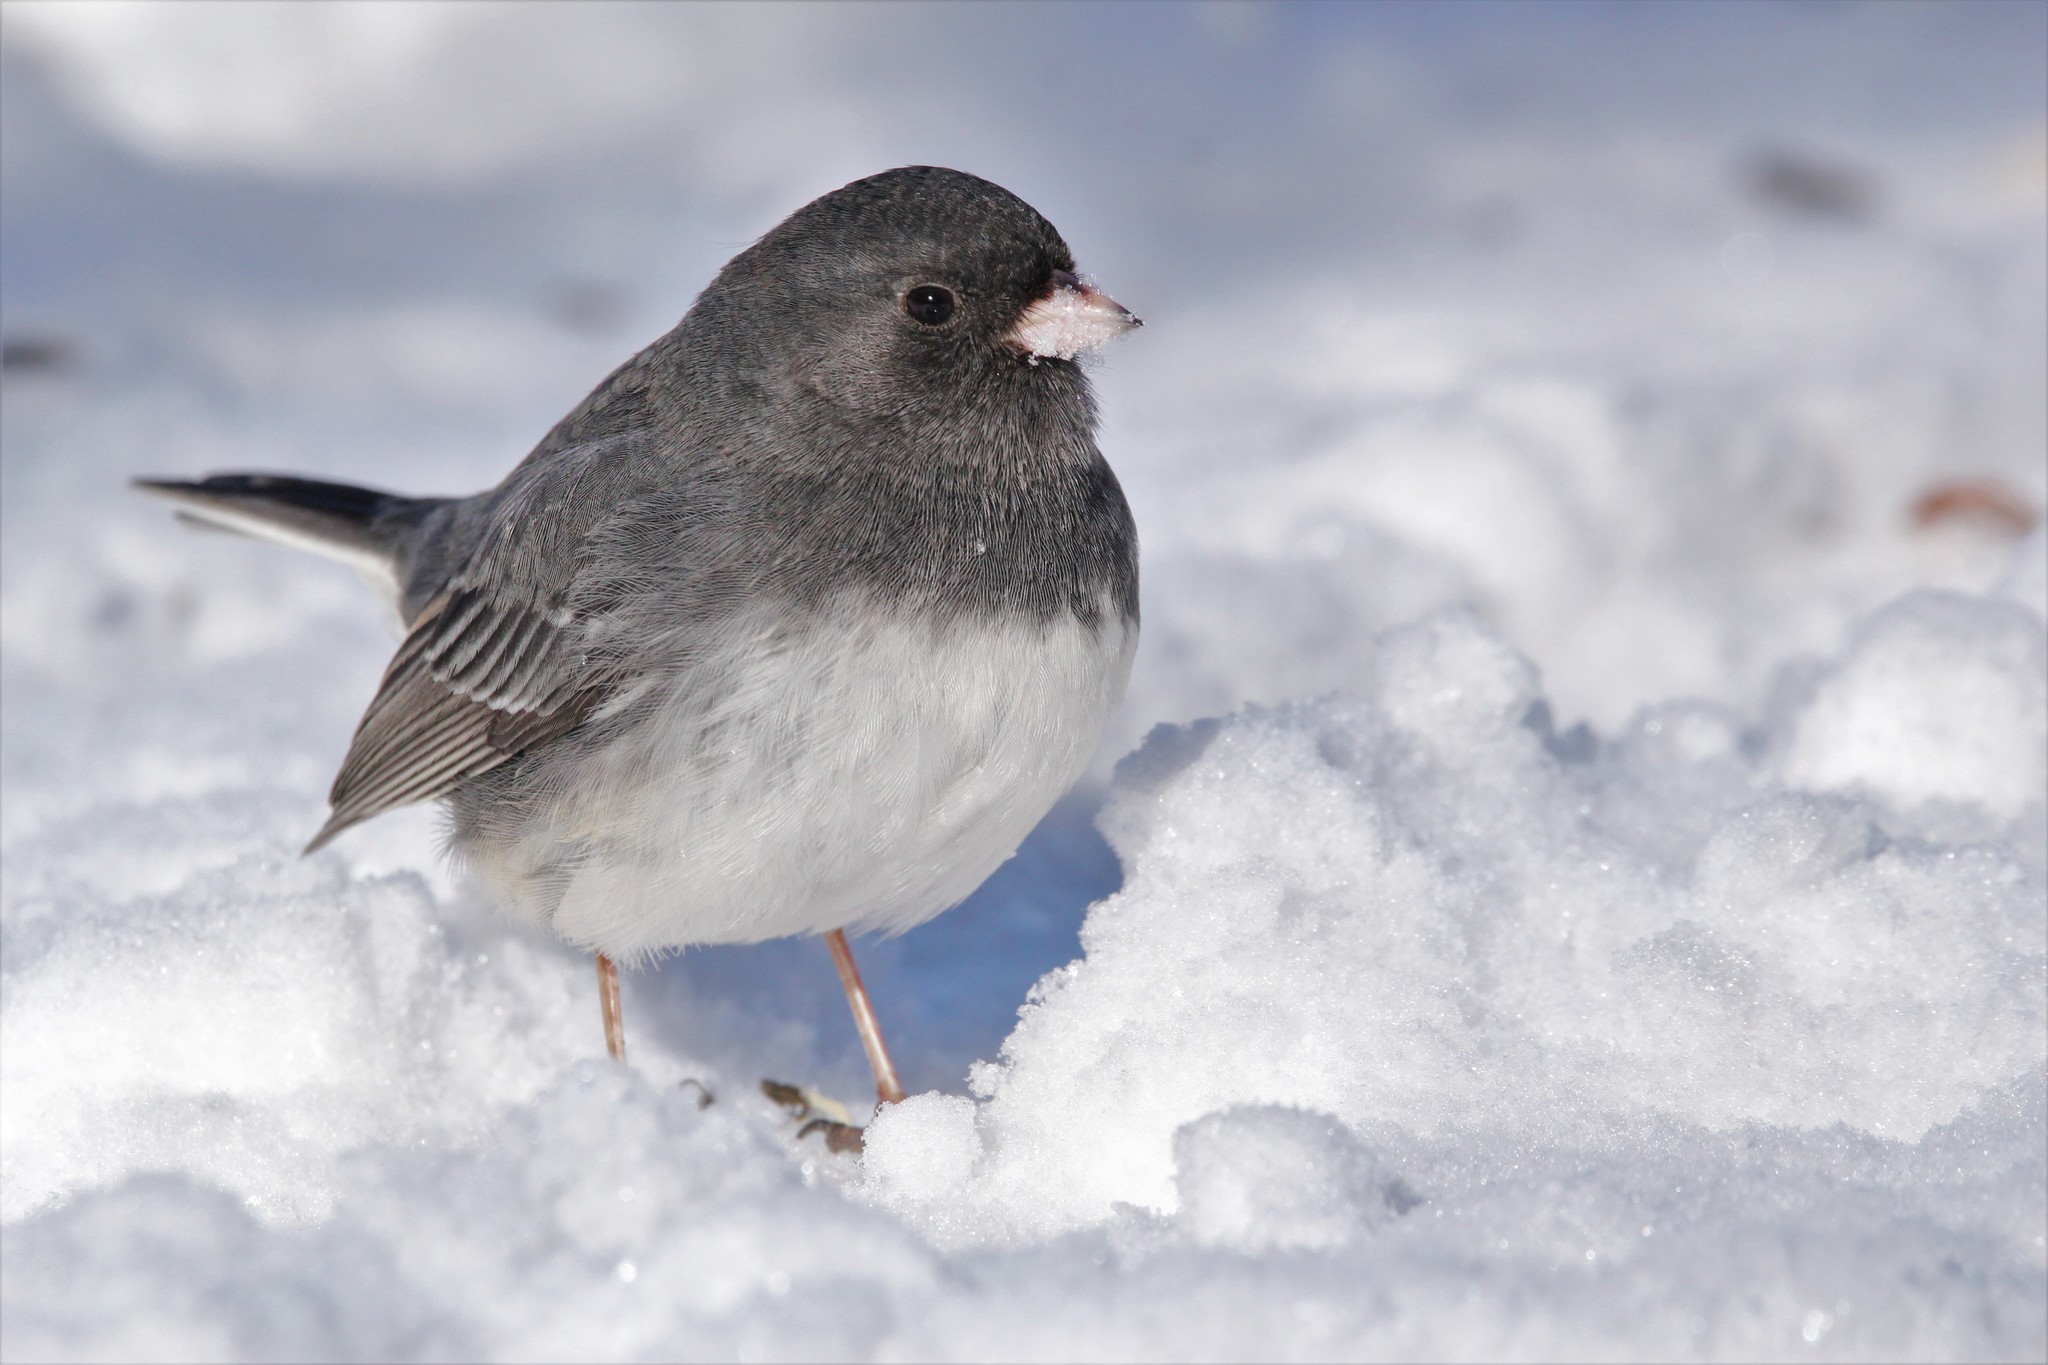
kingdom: Animalia
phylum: Chordata
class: Aves
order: Passeriformes
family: Passerellidae
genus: Junco
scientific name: Junco hyemalis
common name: Dark-eyed junco
